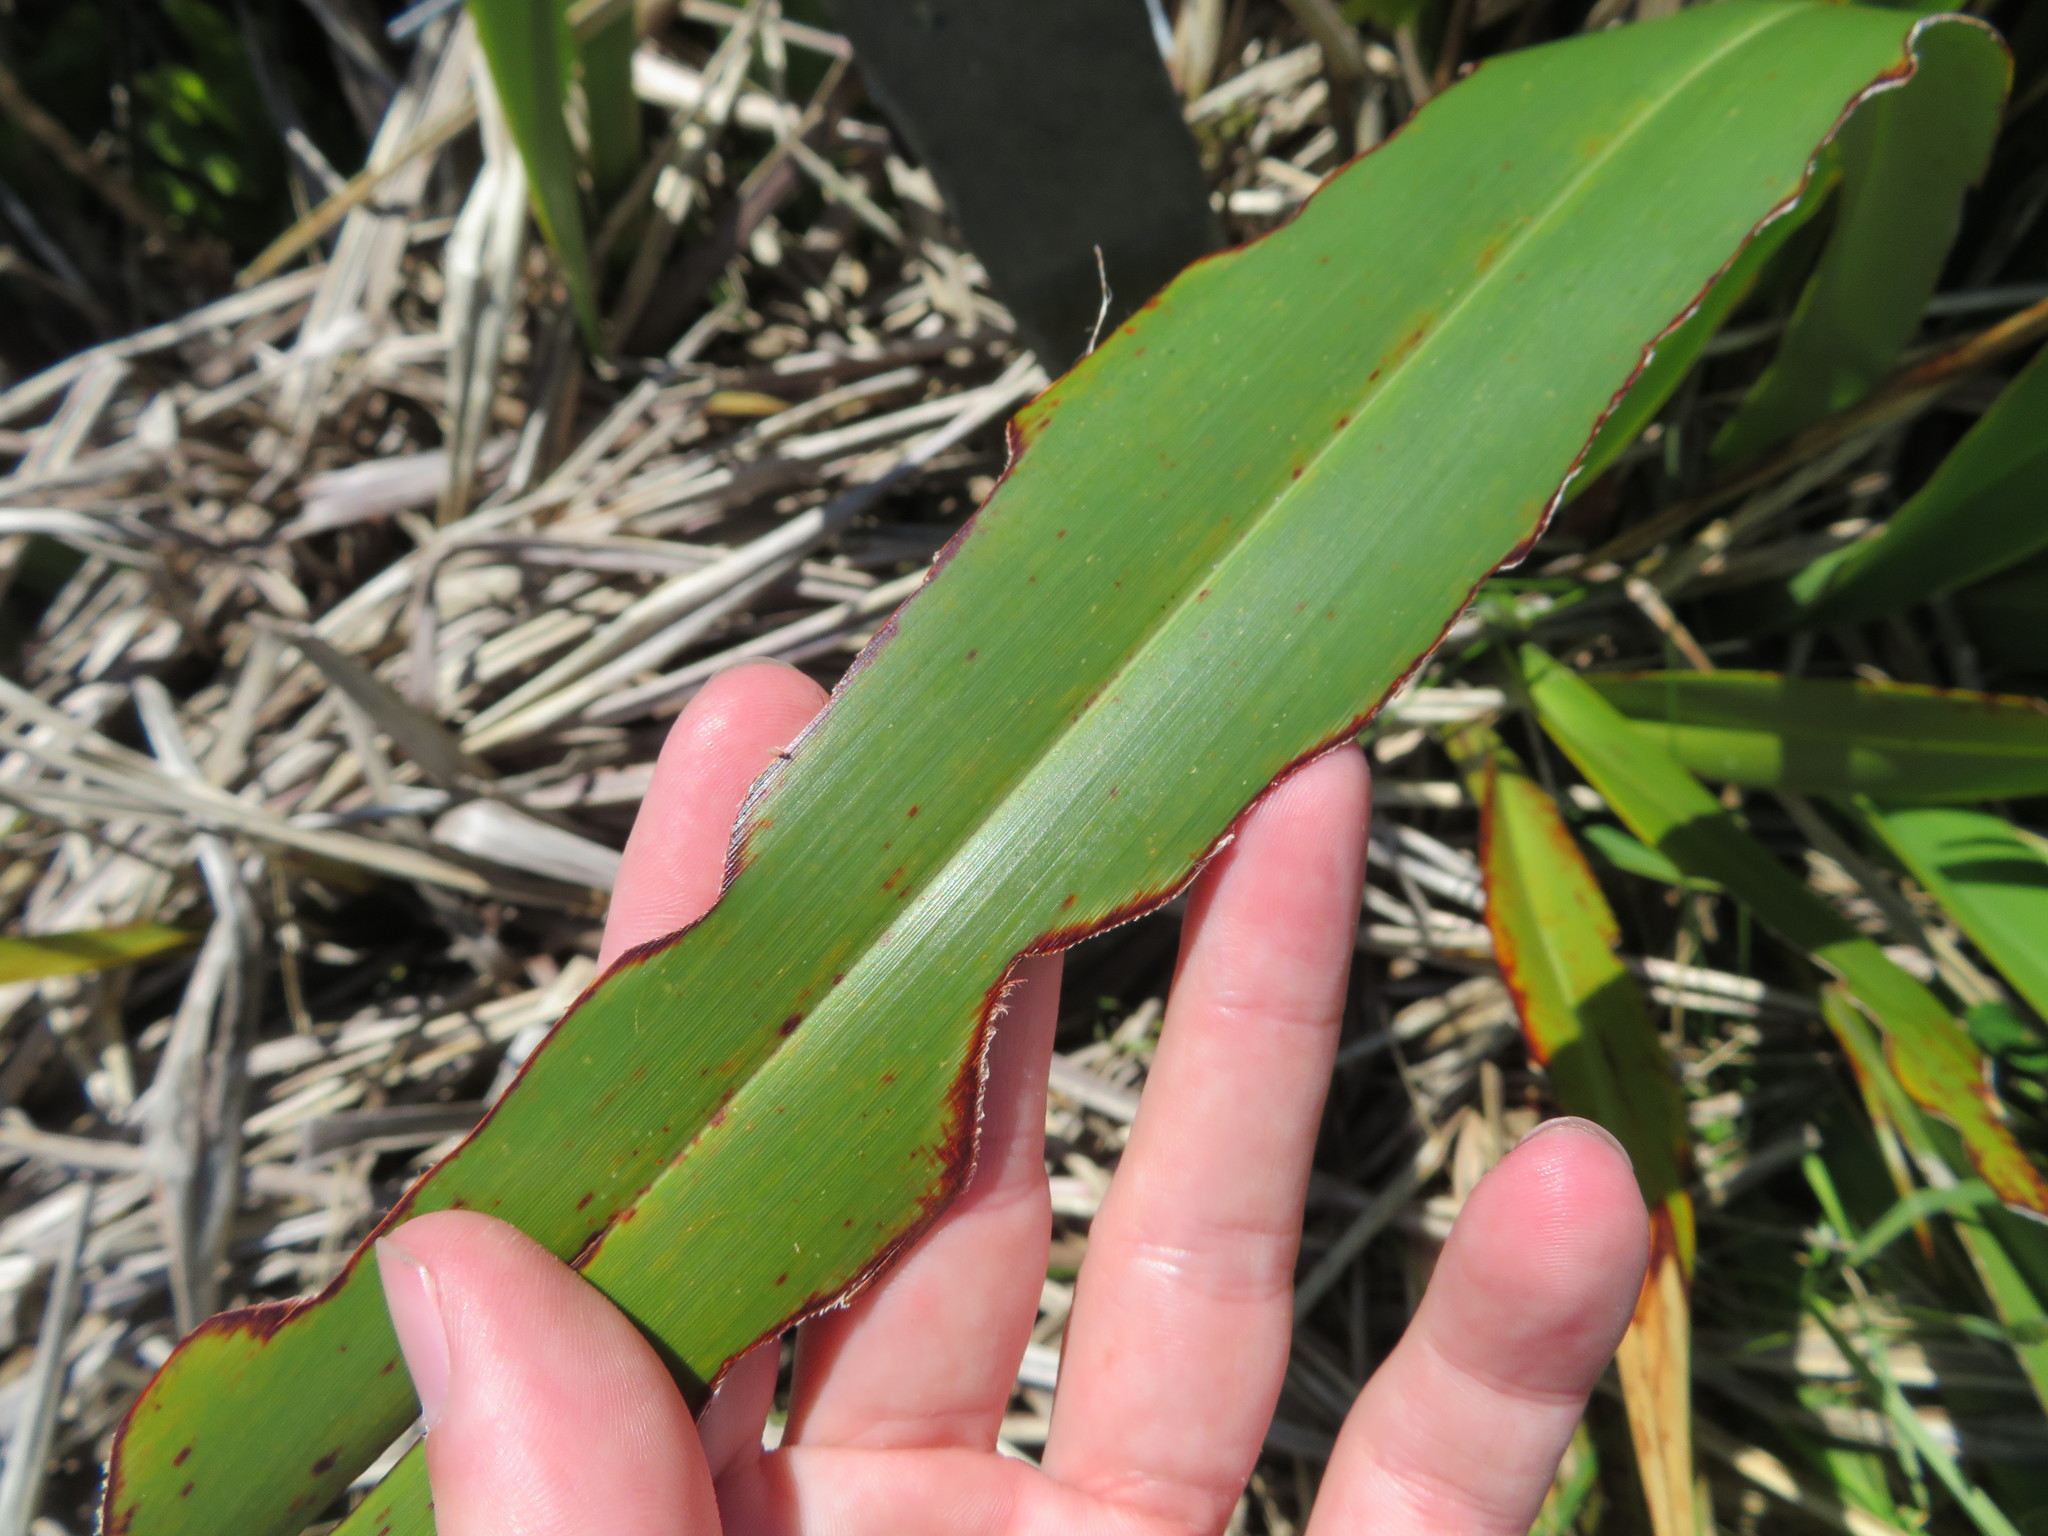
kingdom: Animalia
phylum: Arthropoda
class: Insecta
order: Lepidoptera
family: Noctuidae
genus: Ichneutica
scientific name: Ichneutica
